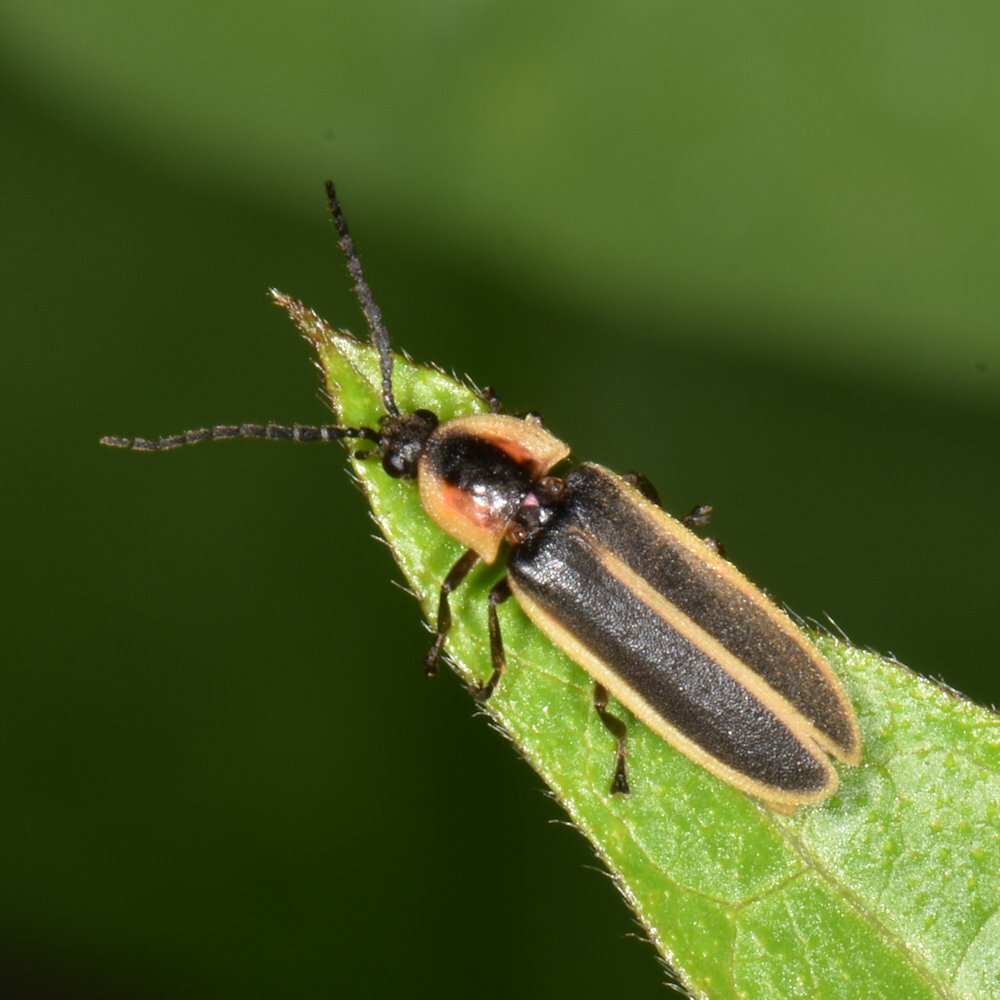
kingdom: Animalia
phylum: Arthropoda
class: Insecta
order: Coleoptera
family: Lampyridae
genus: Photinus
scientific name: Photinus indictus
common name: Silent firefly
